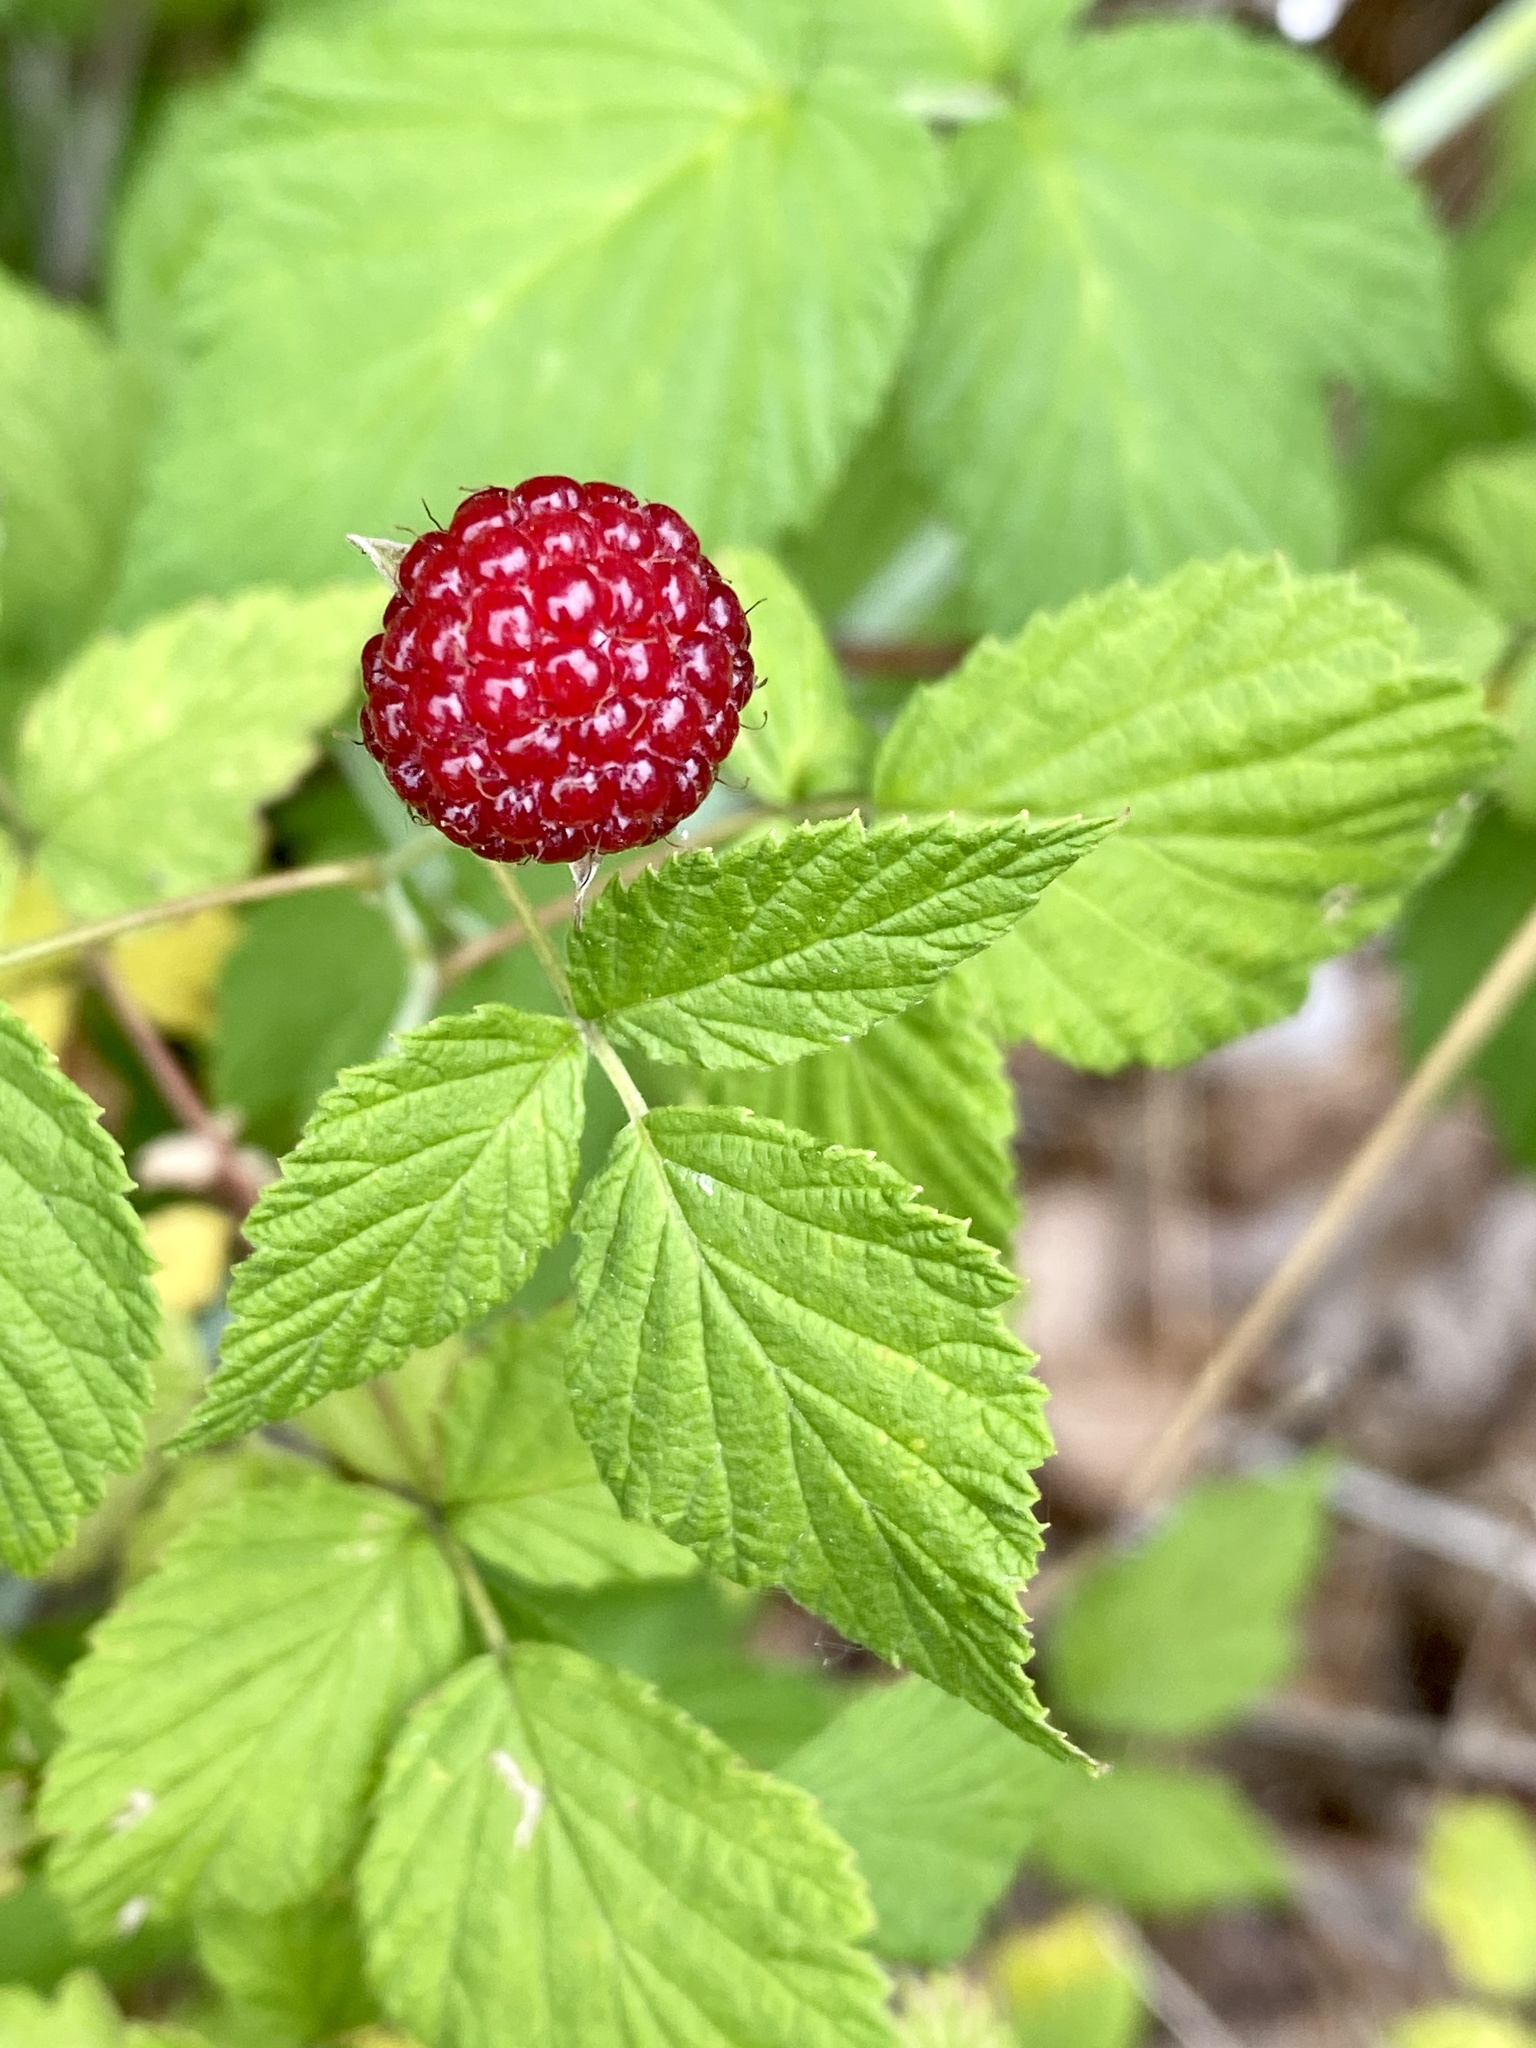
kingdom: Plantae
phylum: Tracheophyta
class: Magnoliopsida
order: Rosales
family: Rosaceae
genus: Rubus
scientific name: Rubus occidentalis
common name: Black raspberry
